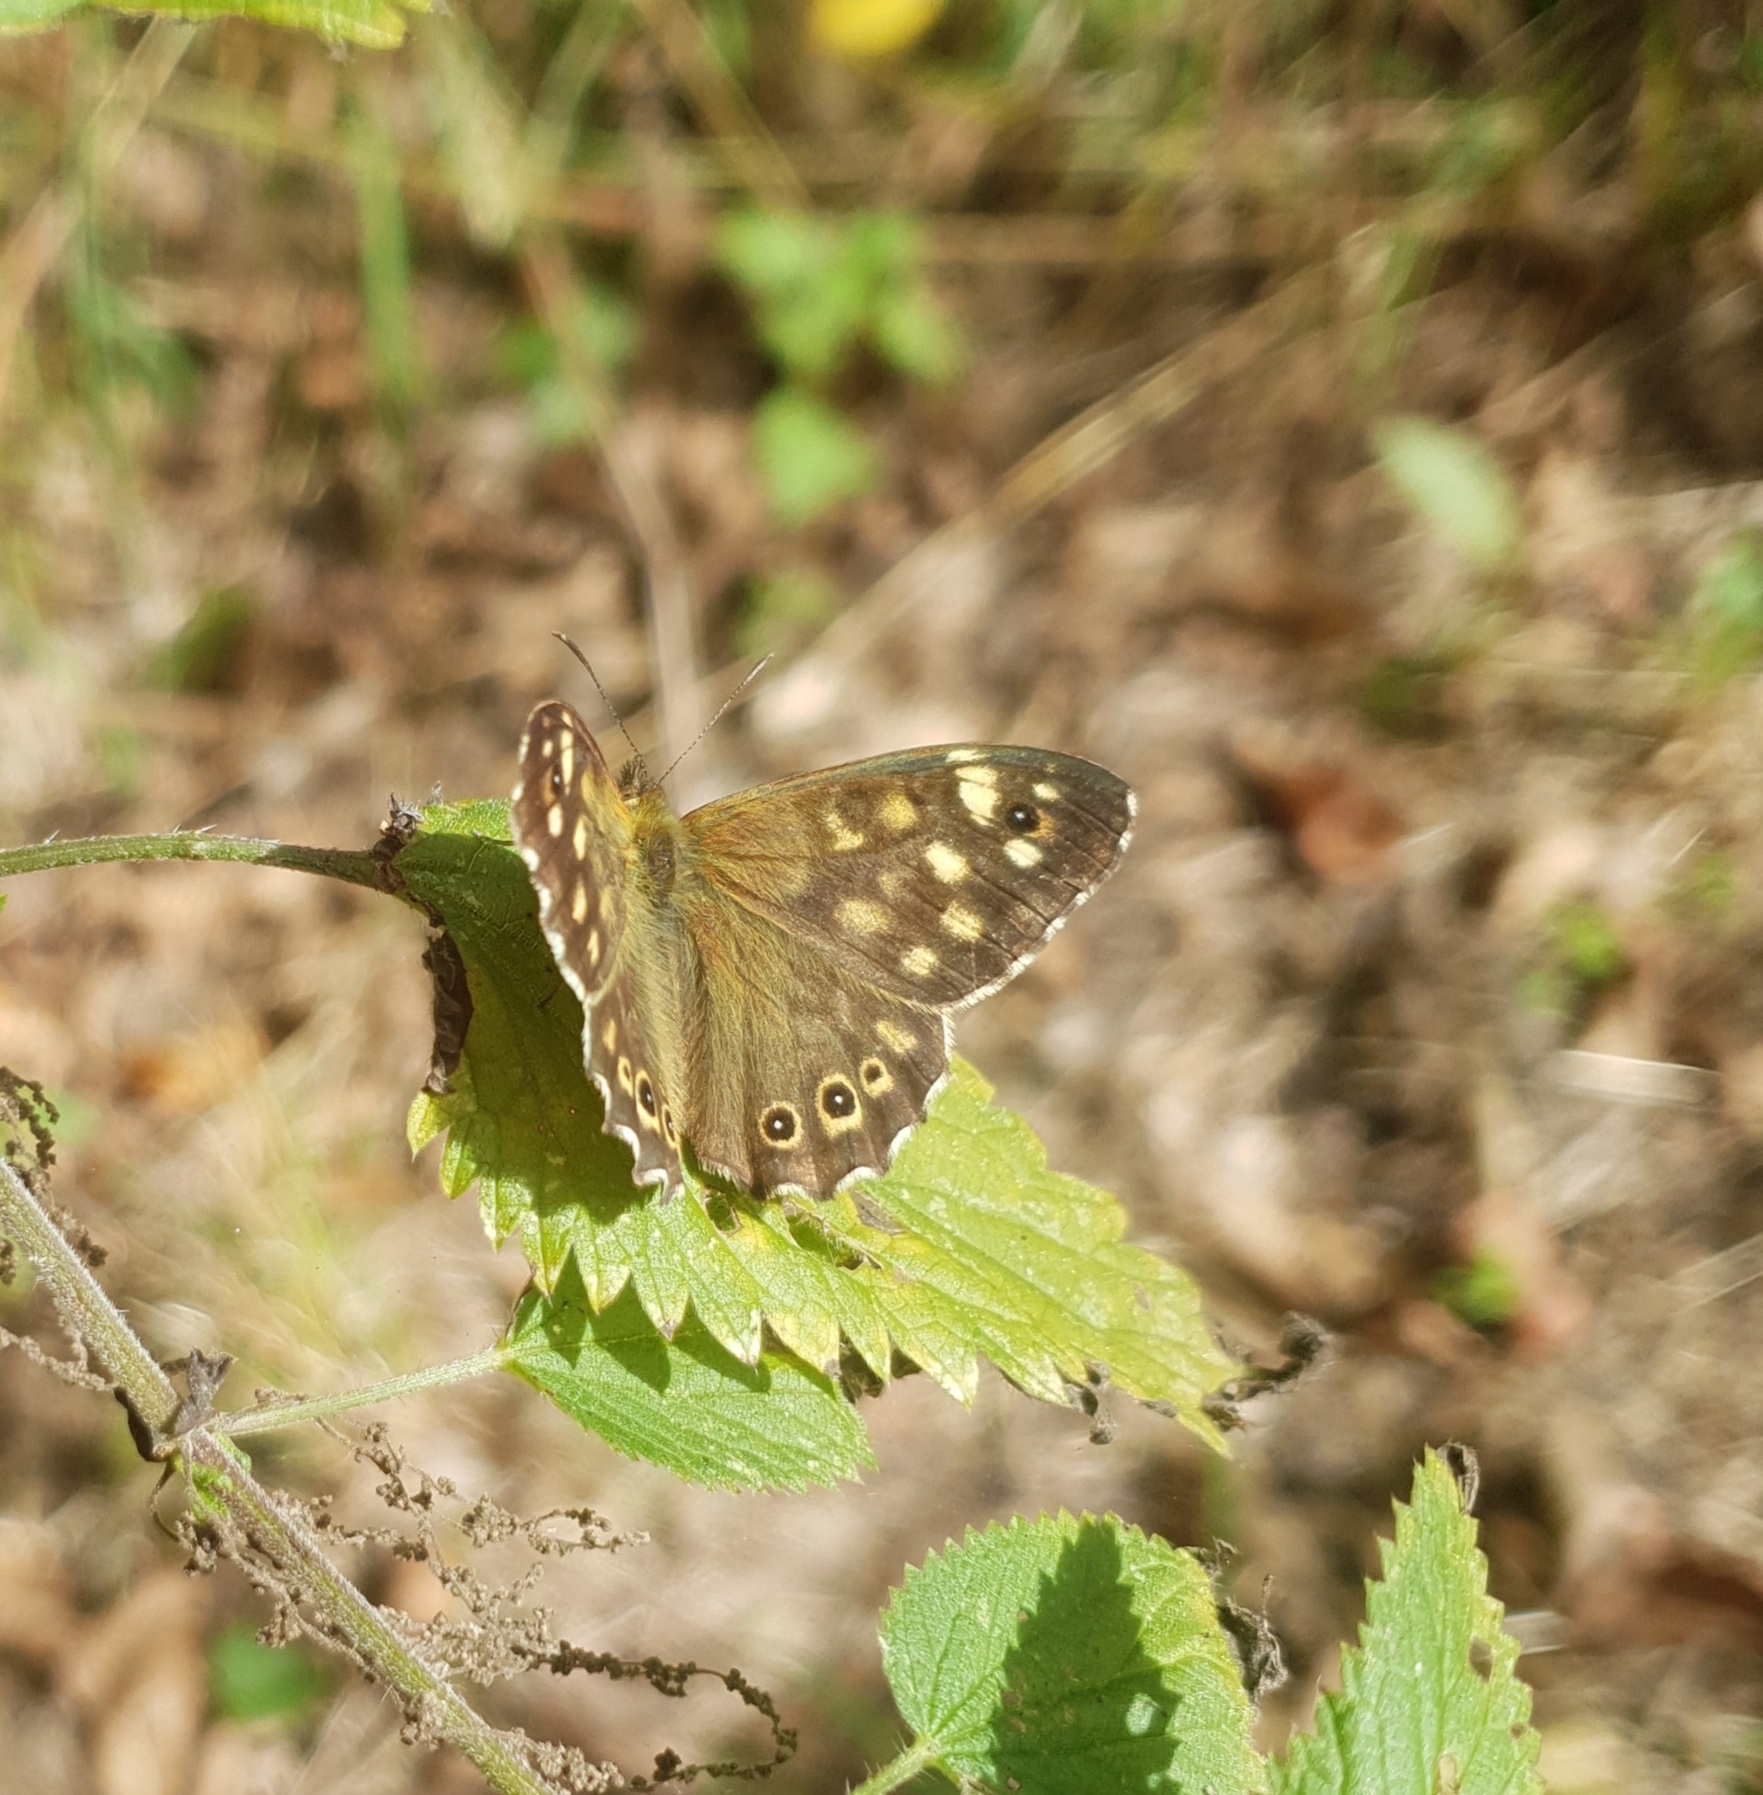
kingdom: Animalia
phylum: Arthropoda
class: Insecta
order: Lepidoptera
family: Nymphalidae
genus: Pararge
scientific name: Pararge aegeria
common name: Speckled wood
